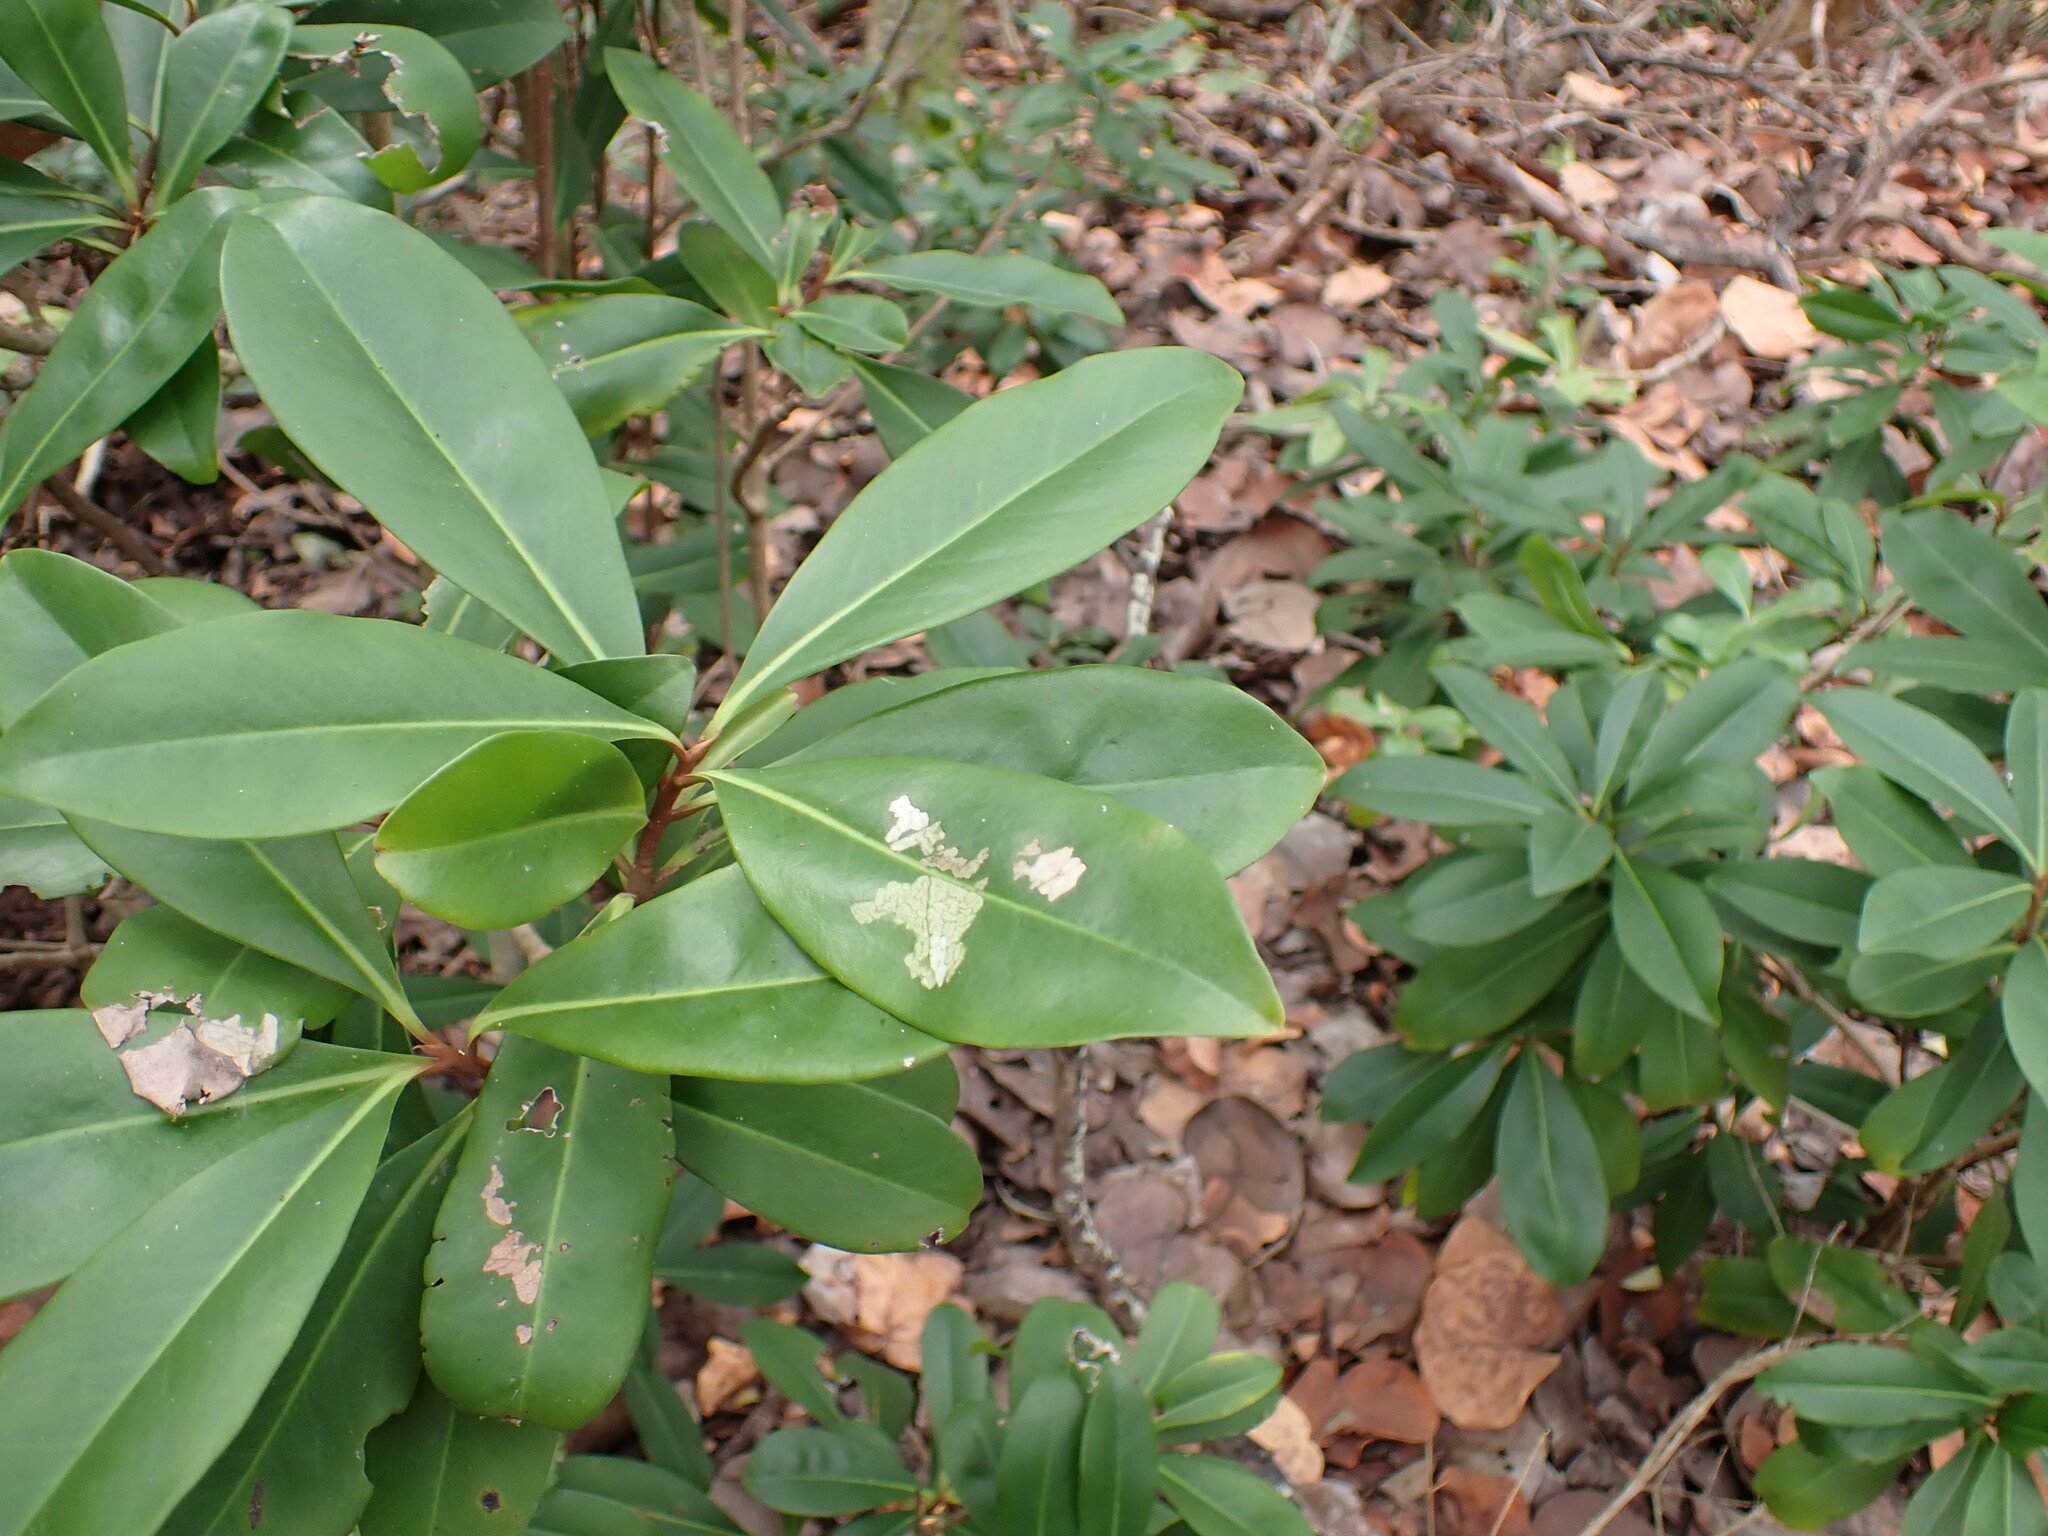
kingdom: Plantae
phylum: Tracheophyta
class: Magnoliopsida
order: Ericales
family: Primulaceae
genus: Ardisia
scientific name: Ardisia escallonioides
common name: Island marlberry
